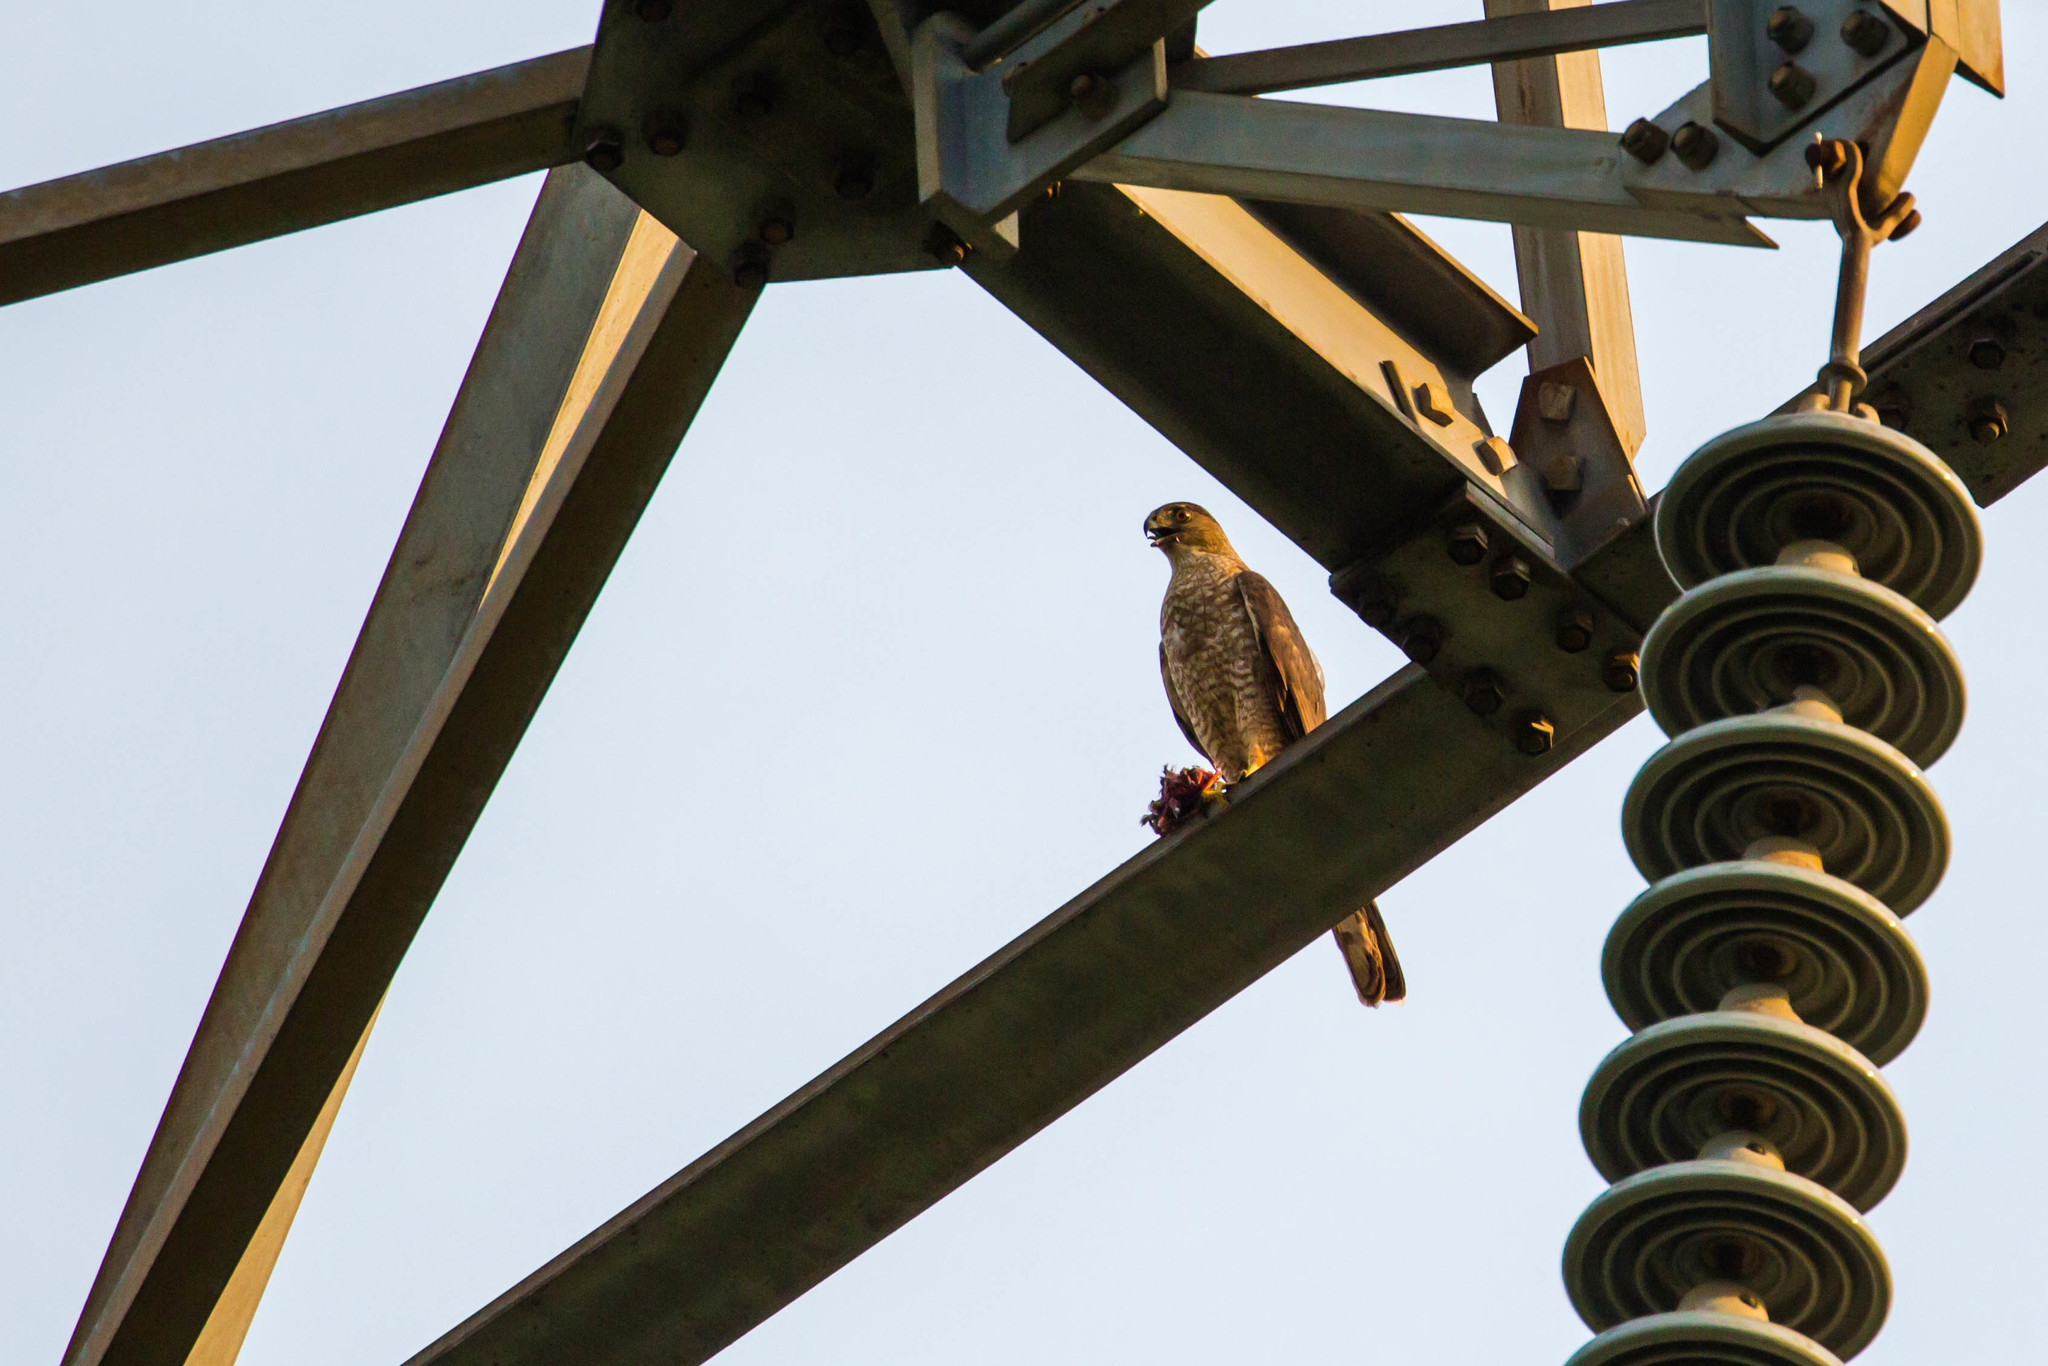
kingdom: Animalia
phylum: Chordata
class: Aves
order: Accipitriformes
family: Accipitridae
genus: Accipiter
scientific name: Accipiter cooperii
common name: Cooper's hawk
